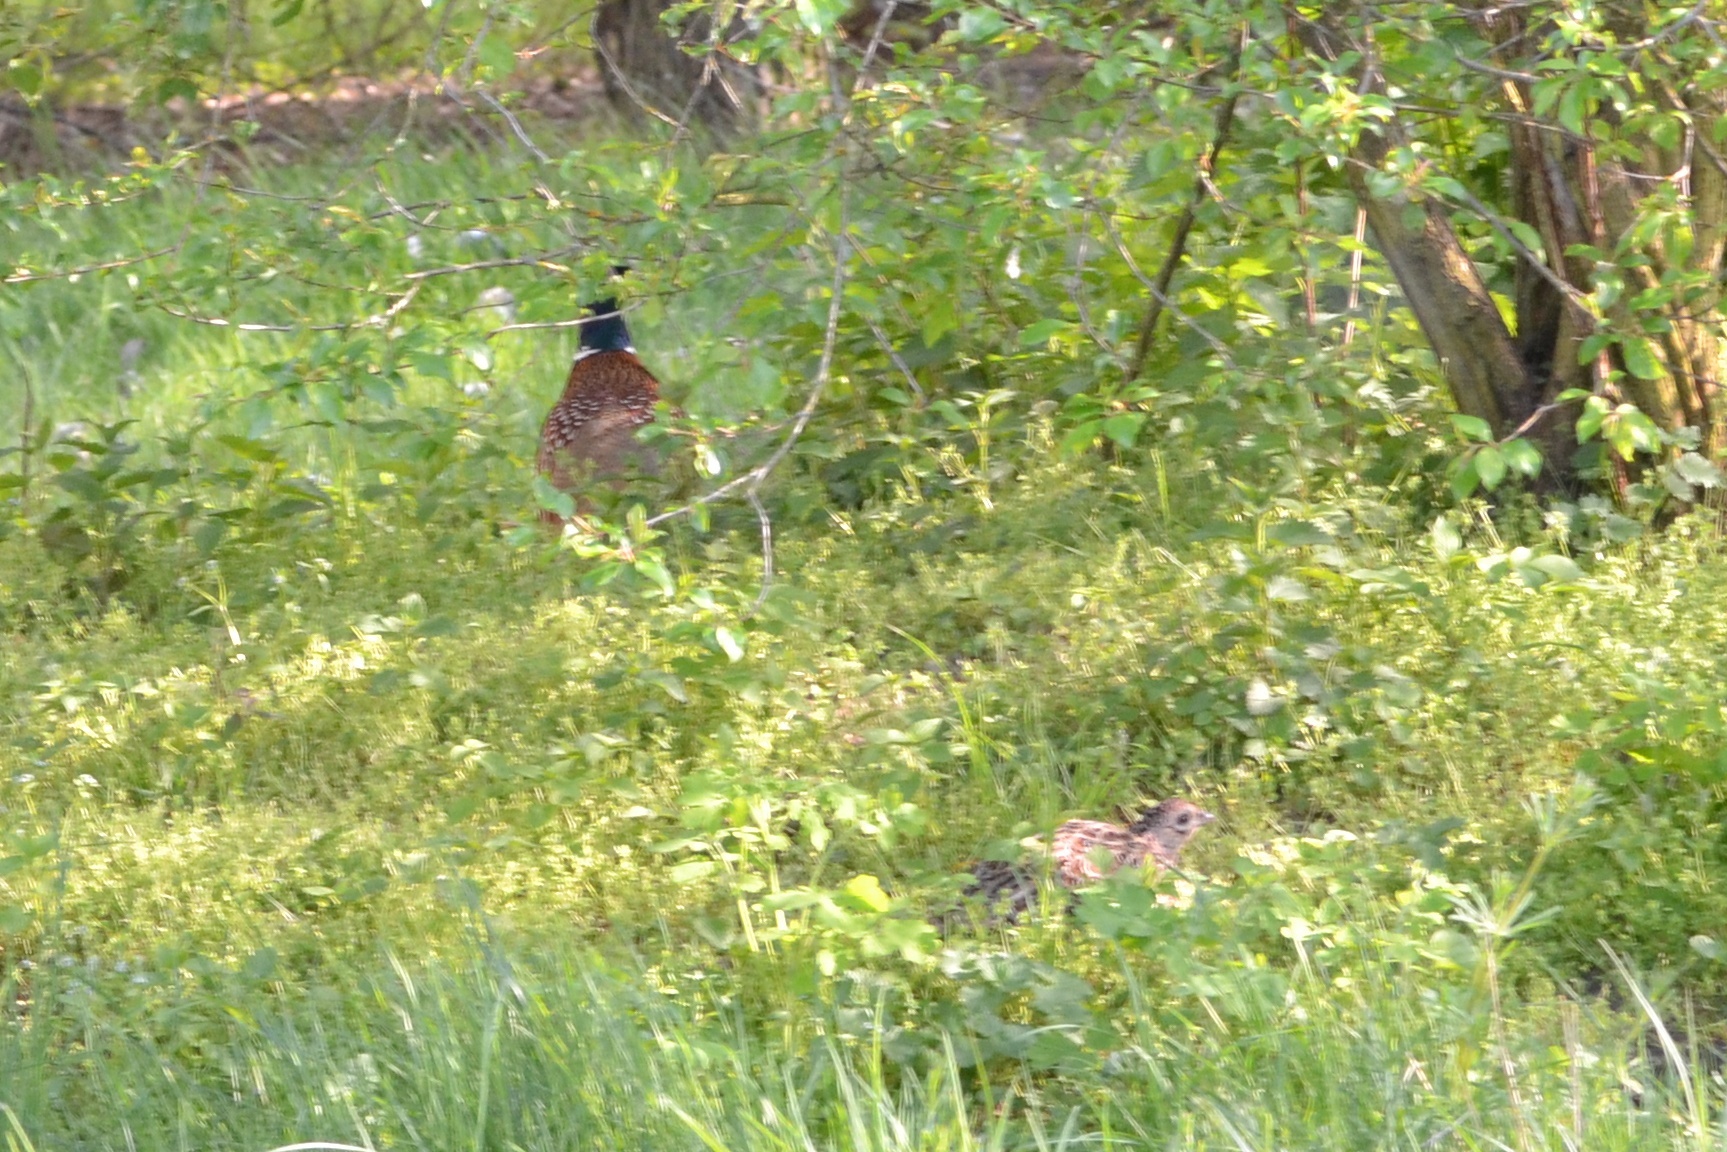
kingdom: Animalia
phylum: Chordata
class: Aves
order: Galliformes
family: Phasianidae
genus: Phasianus
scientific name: Phasianus colchicus
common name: Common pheasant
